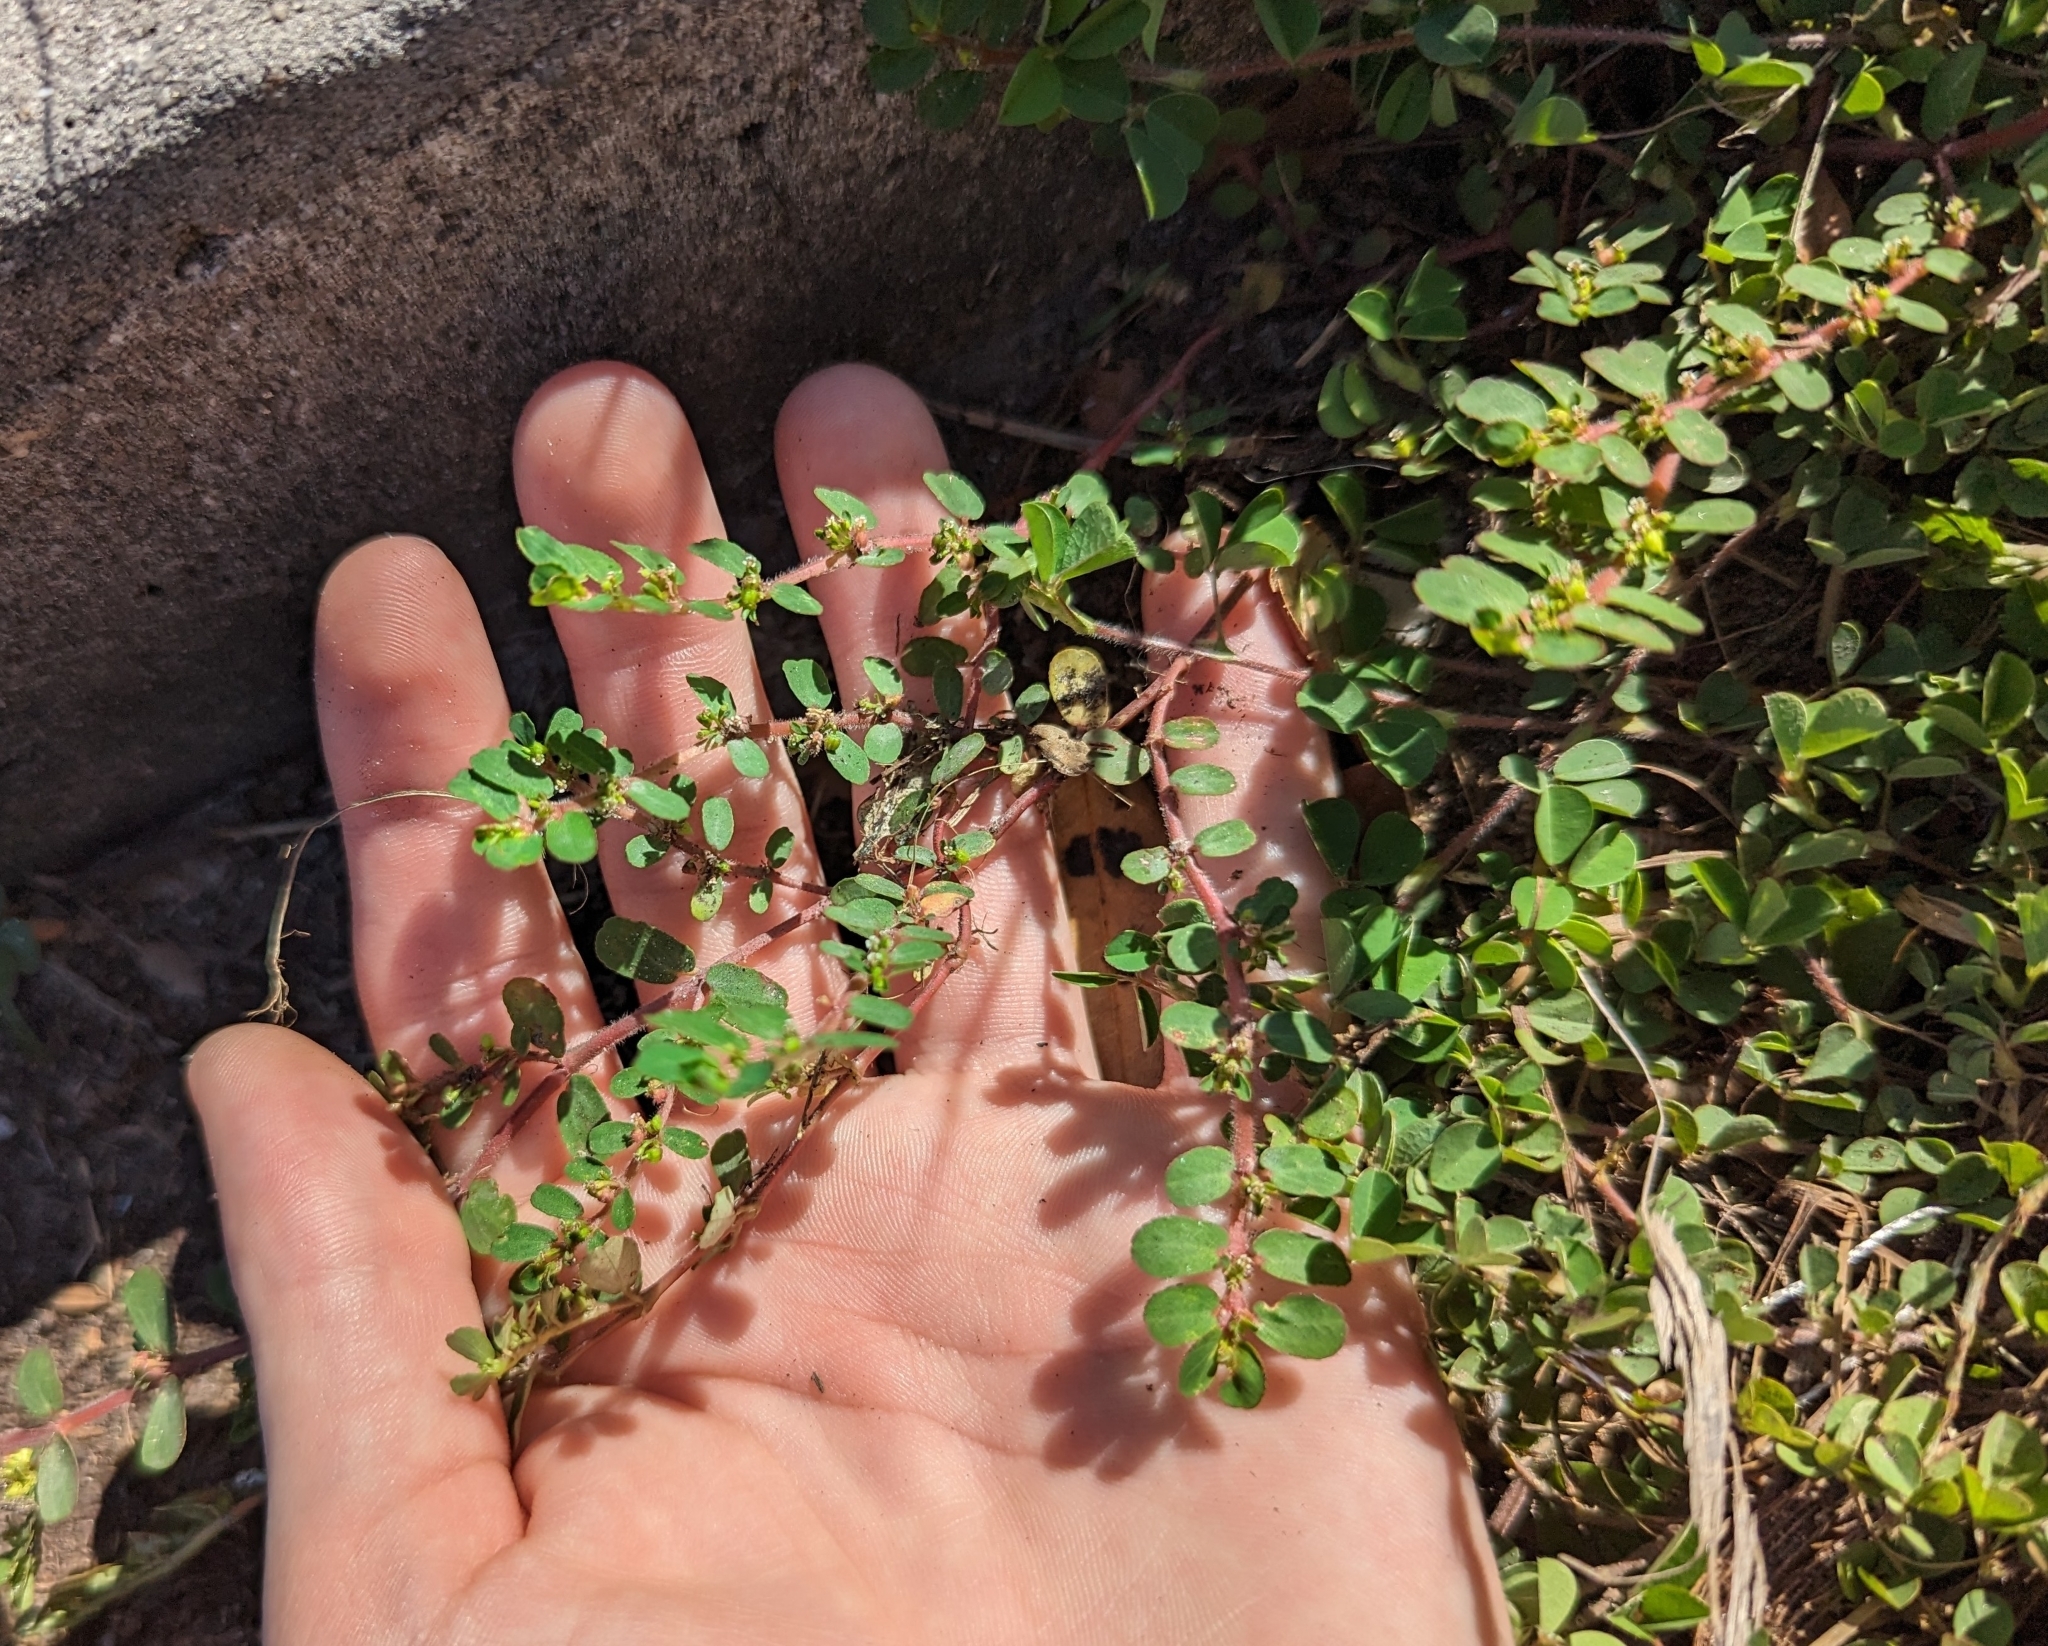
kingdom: Plantae
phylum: Tracheophyta
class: Magnoliopsida
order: Malpighiales
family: Euphorbiaceae
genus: Euphorbia
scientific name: Euphorbia mendezii
